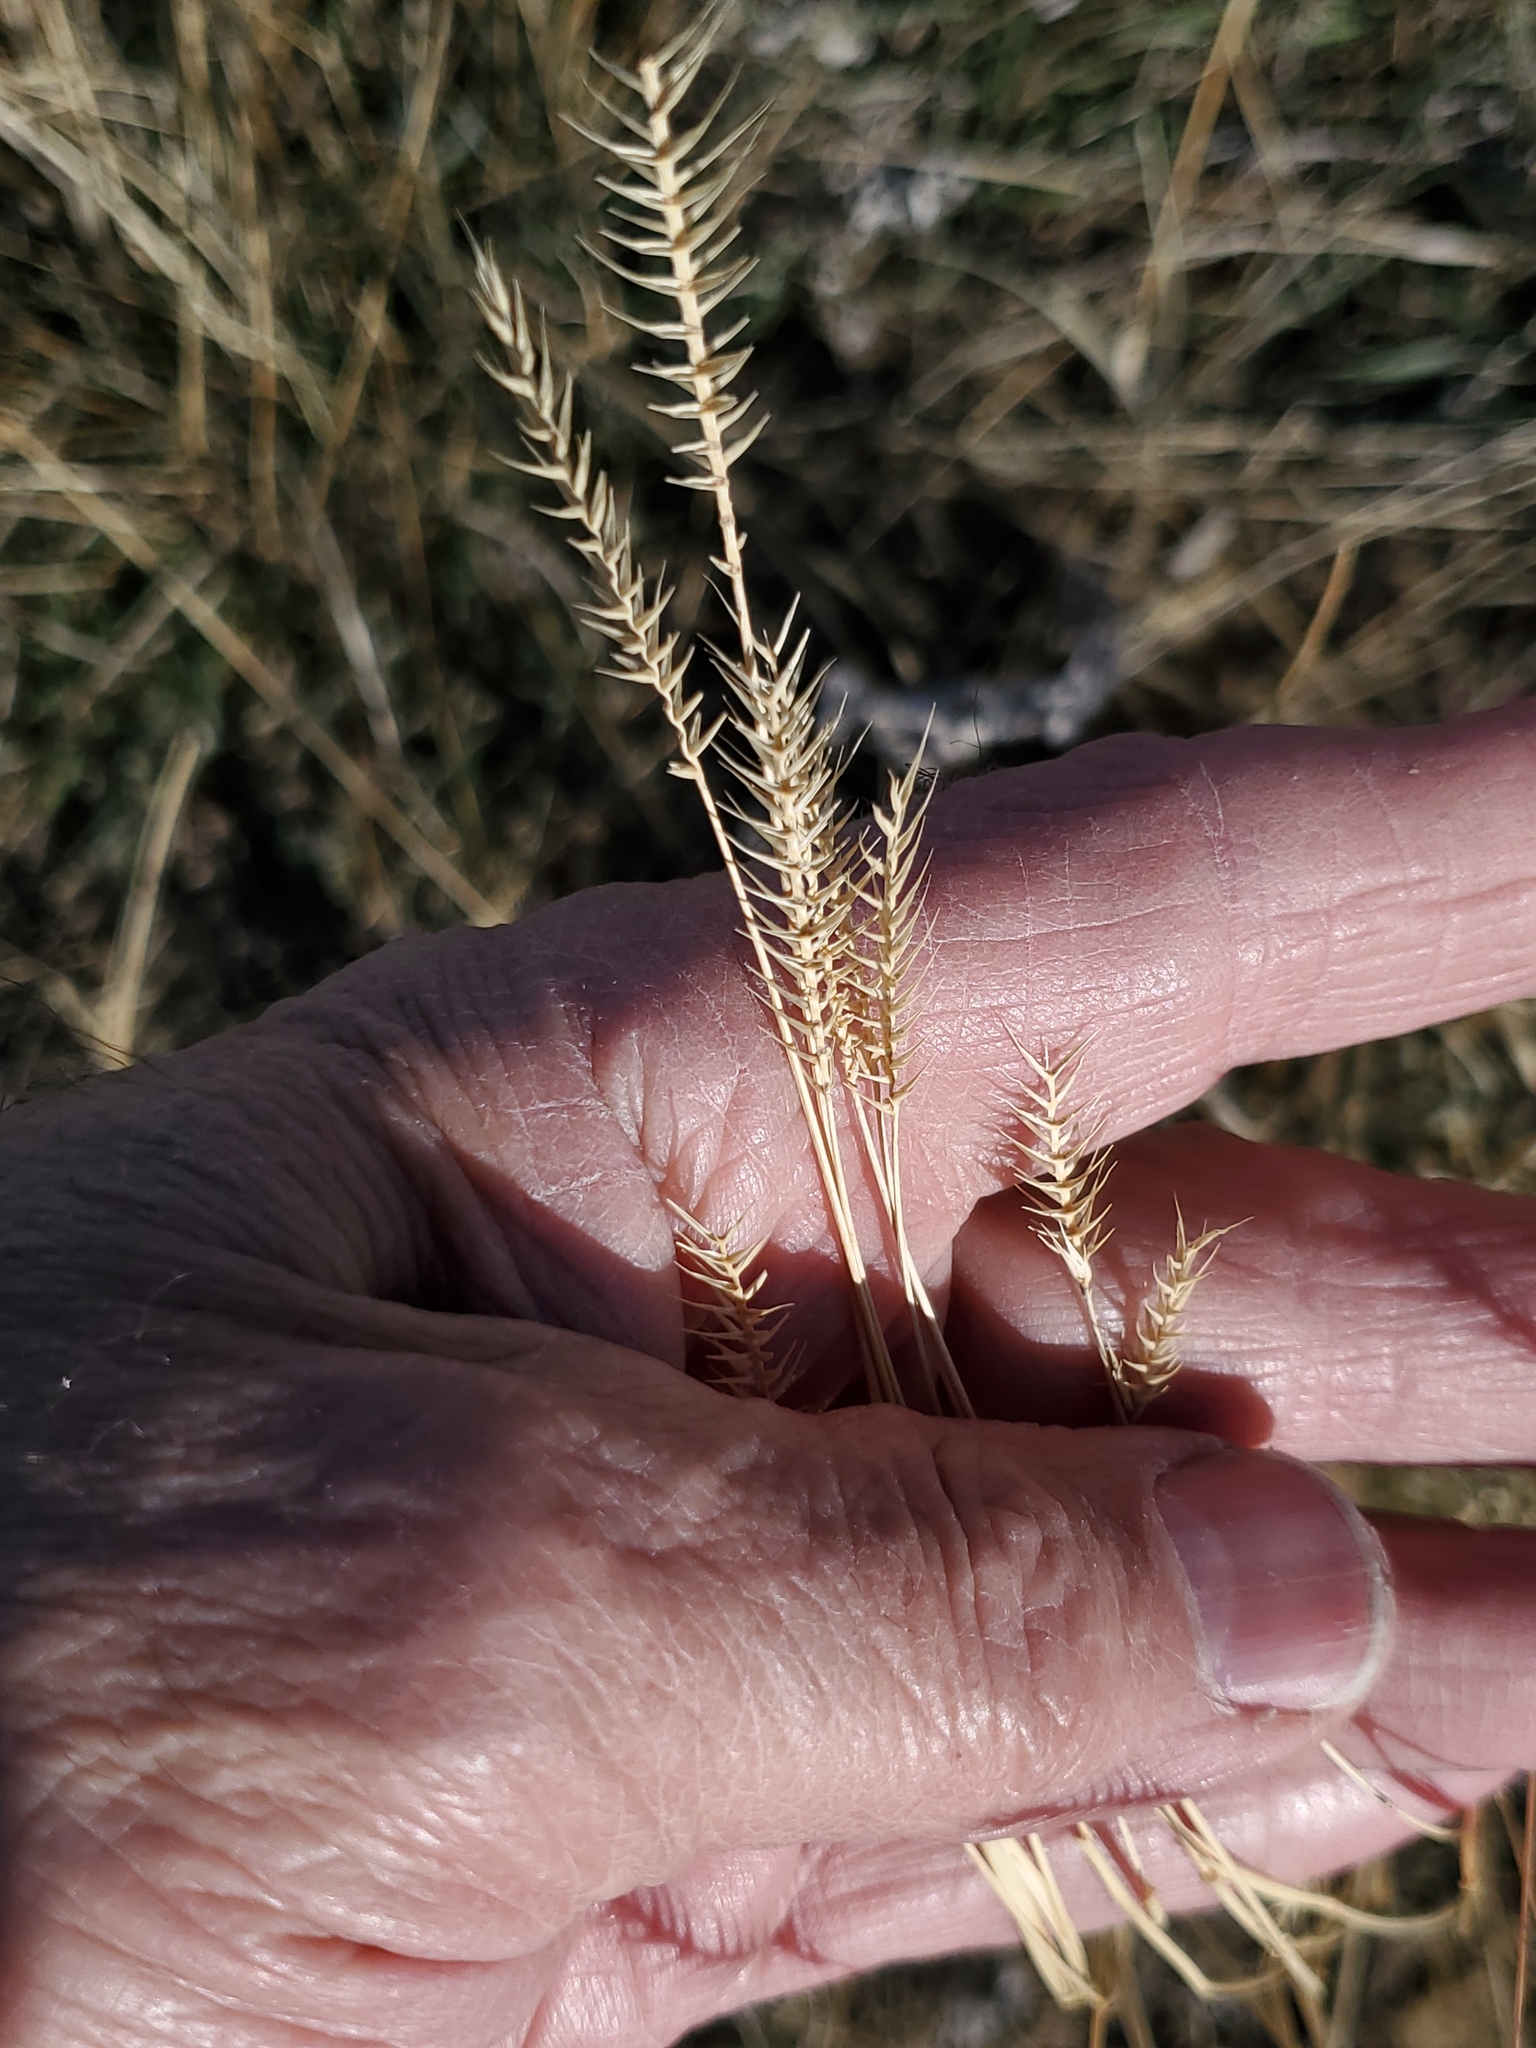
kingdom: Plantae
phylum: Tracheophyta
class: Liliopsida
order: Poales
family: Poaceae
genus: Agropyron
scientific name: Agropyron cristatum
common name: Crested wheatgrass
